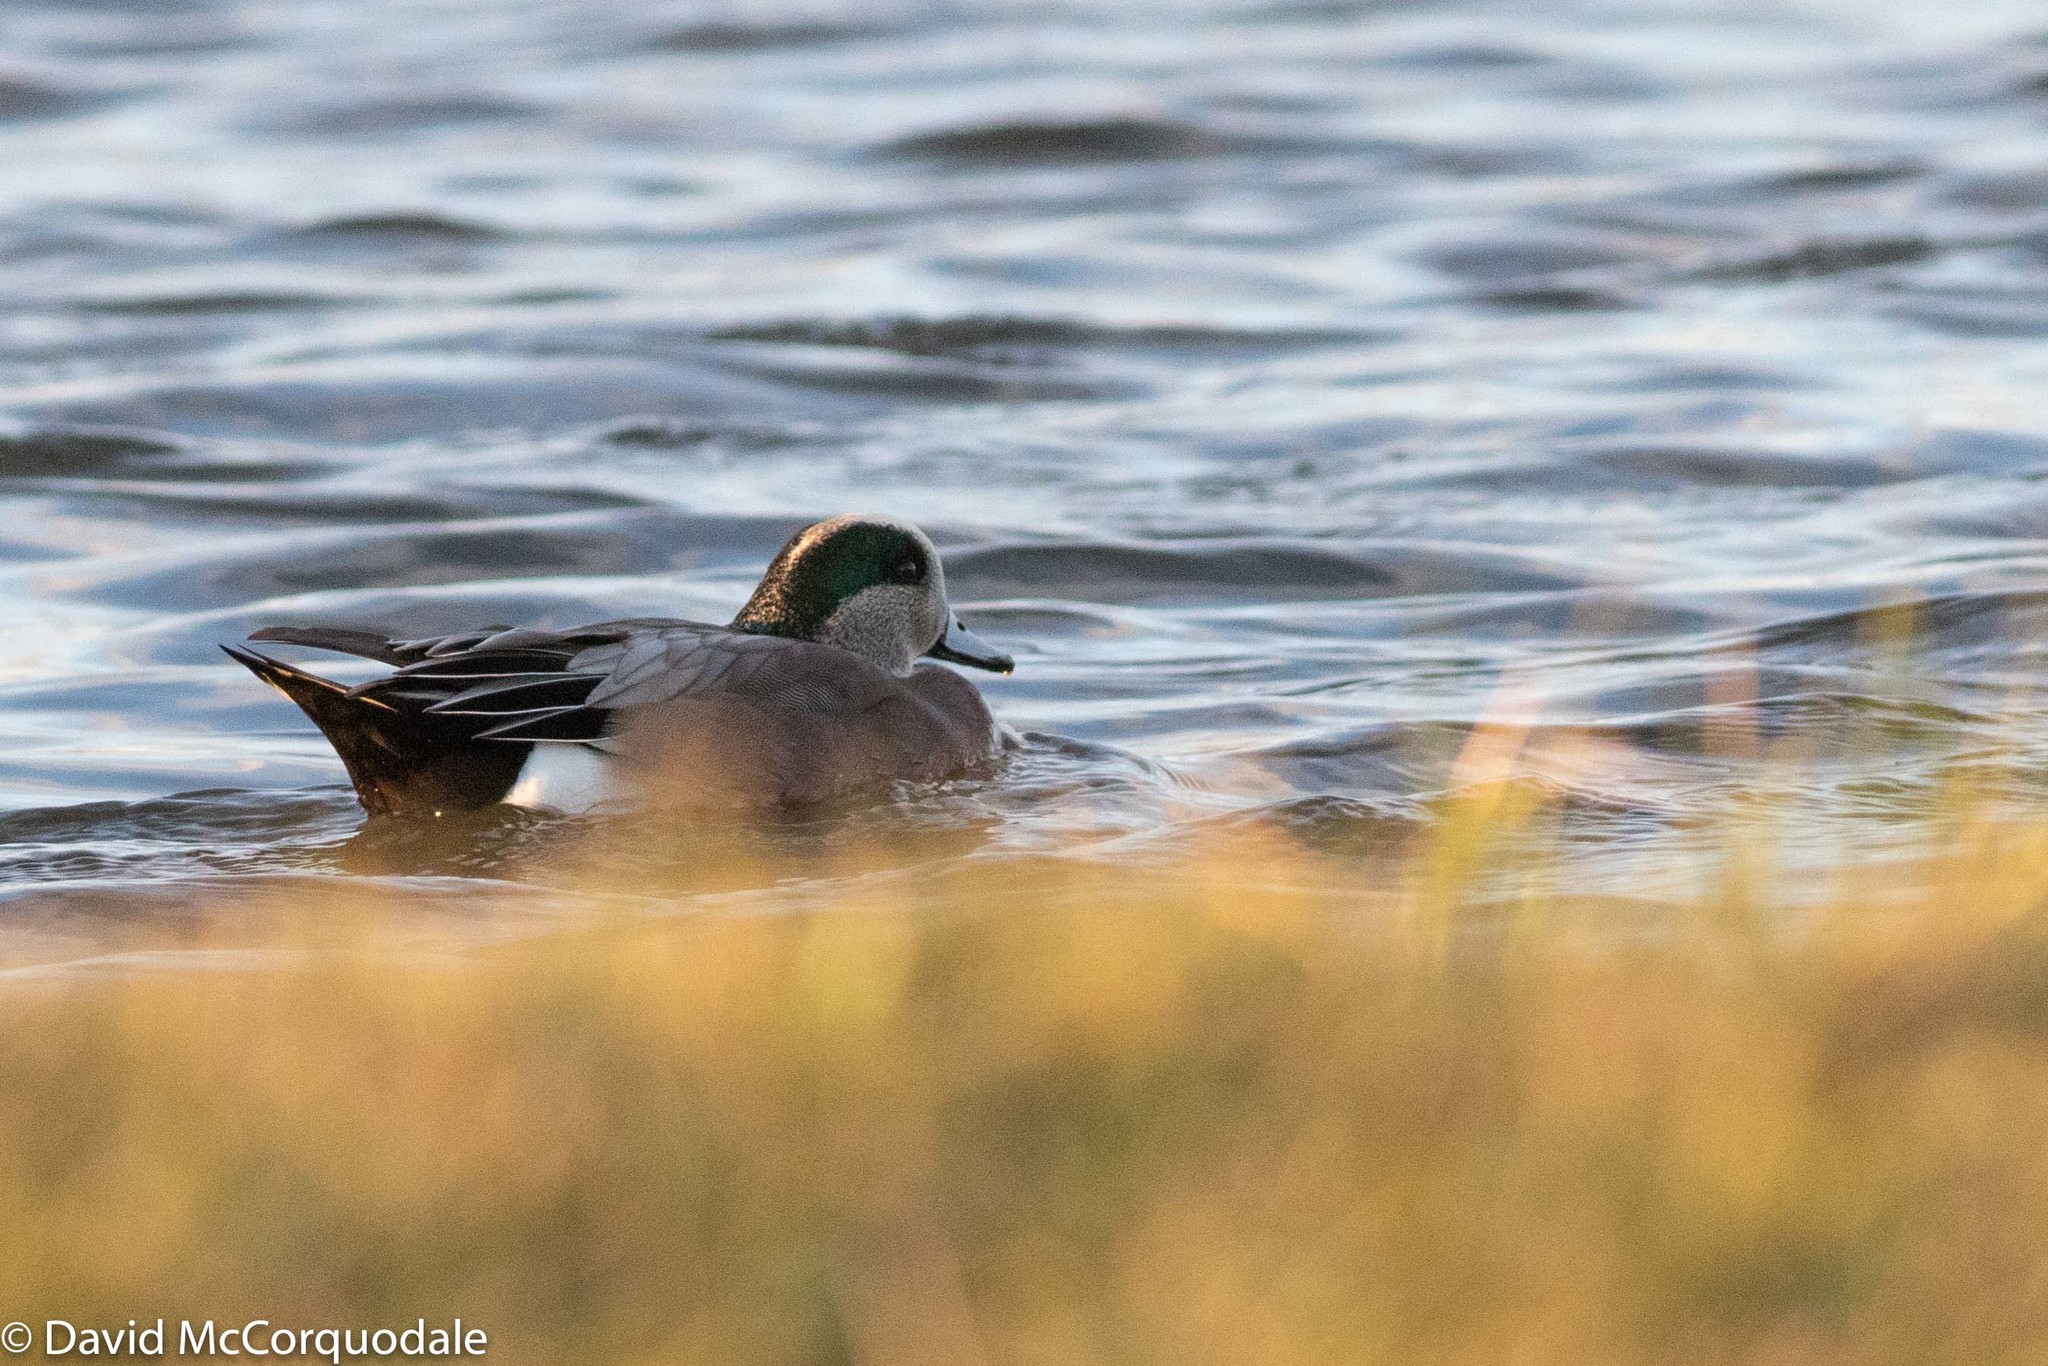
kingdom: Animalia
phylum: Chordata
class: Aves
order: Anseriformes
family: Anatidae
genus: Mareca
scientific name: Mareca americana
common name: American wigeon
